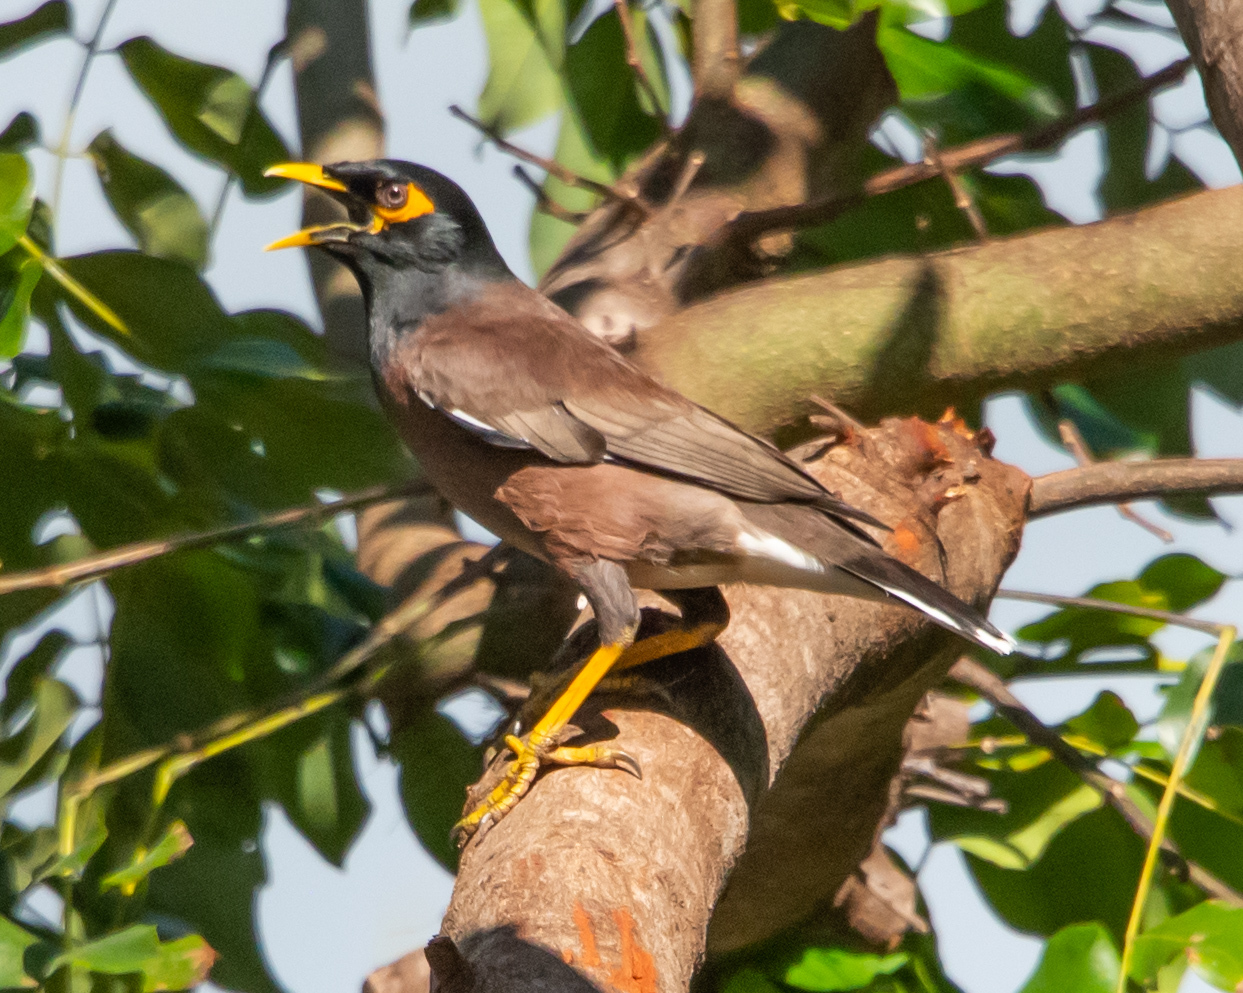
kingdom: Animalia
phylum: Chordata
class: Aves
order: Passeriformes
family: Sturnidae
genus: Acridotheres
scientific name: Acridotheres tristis
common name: Common myna
